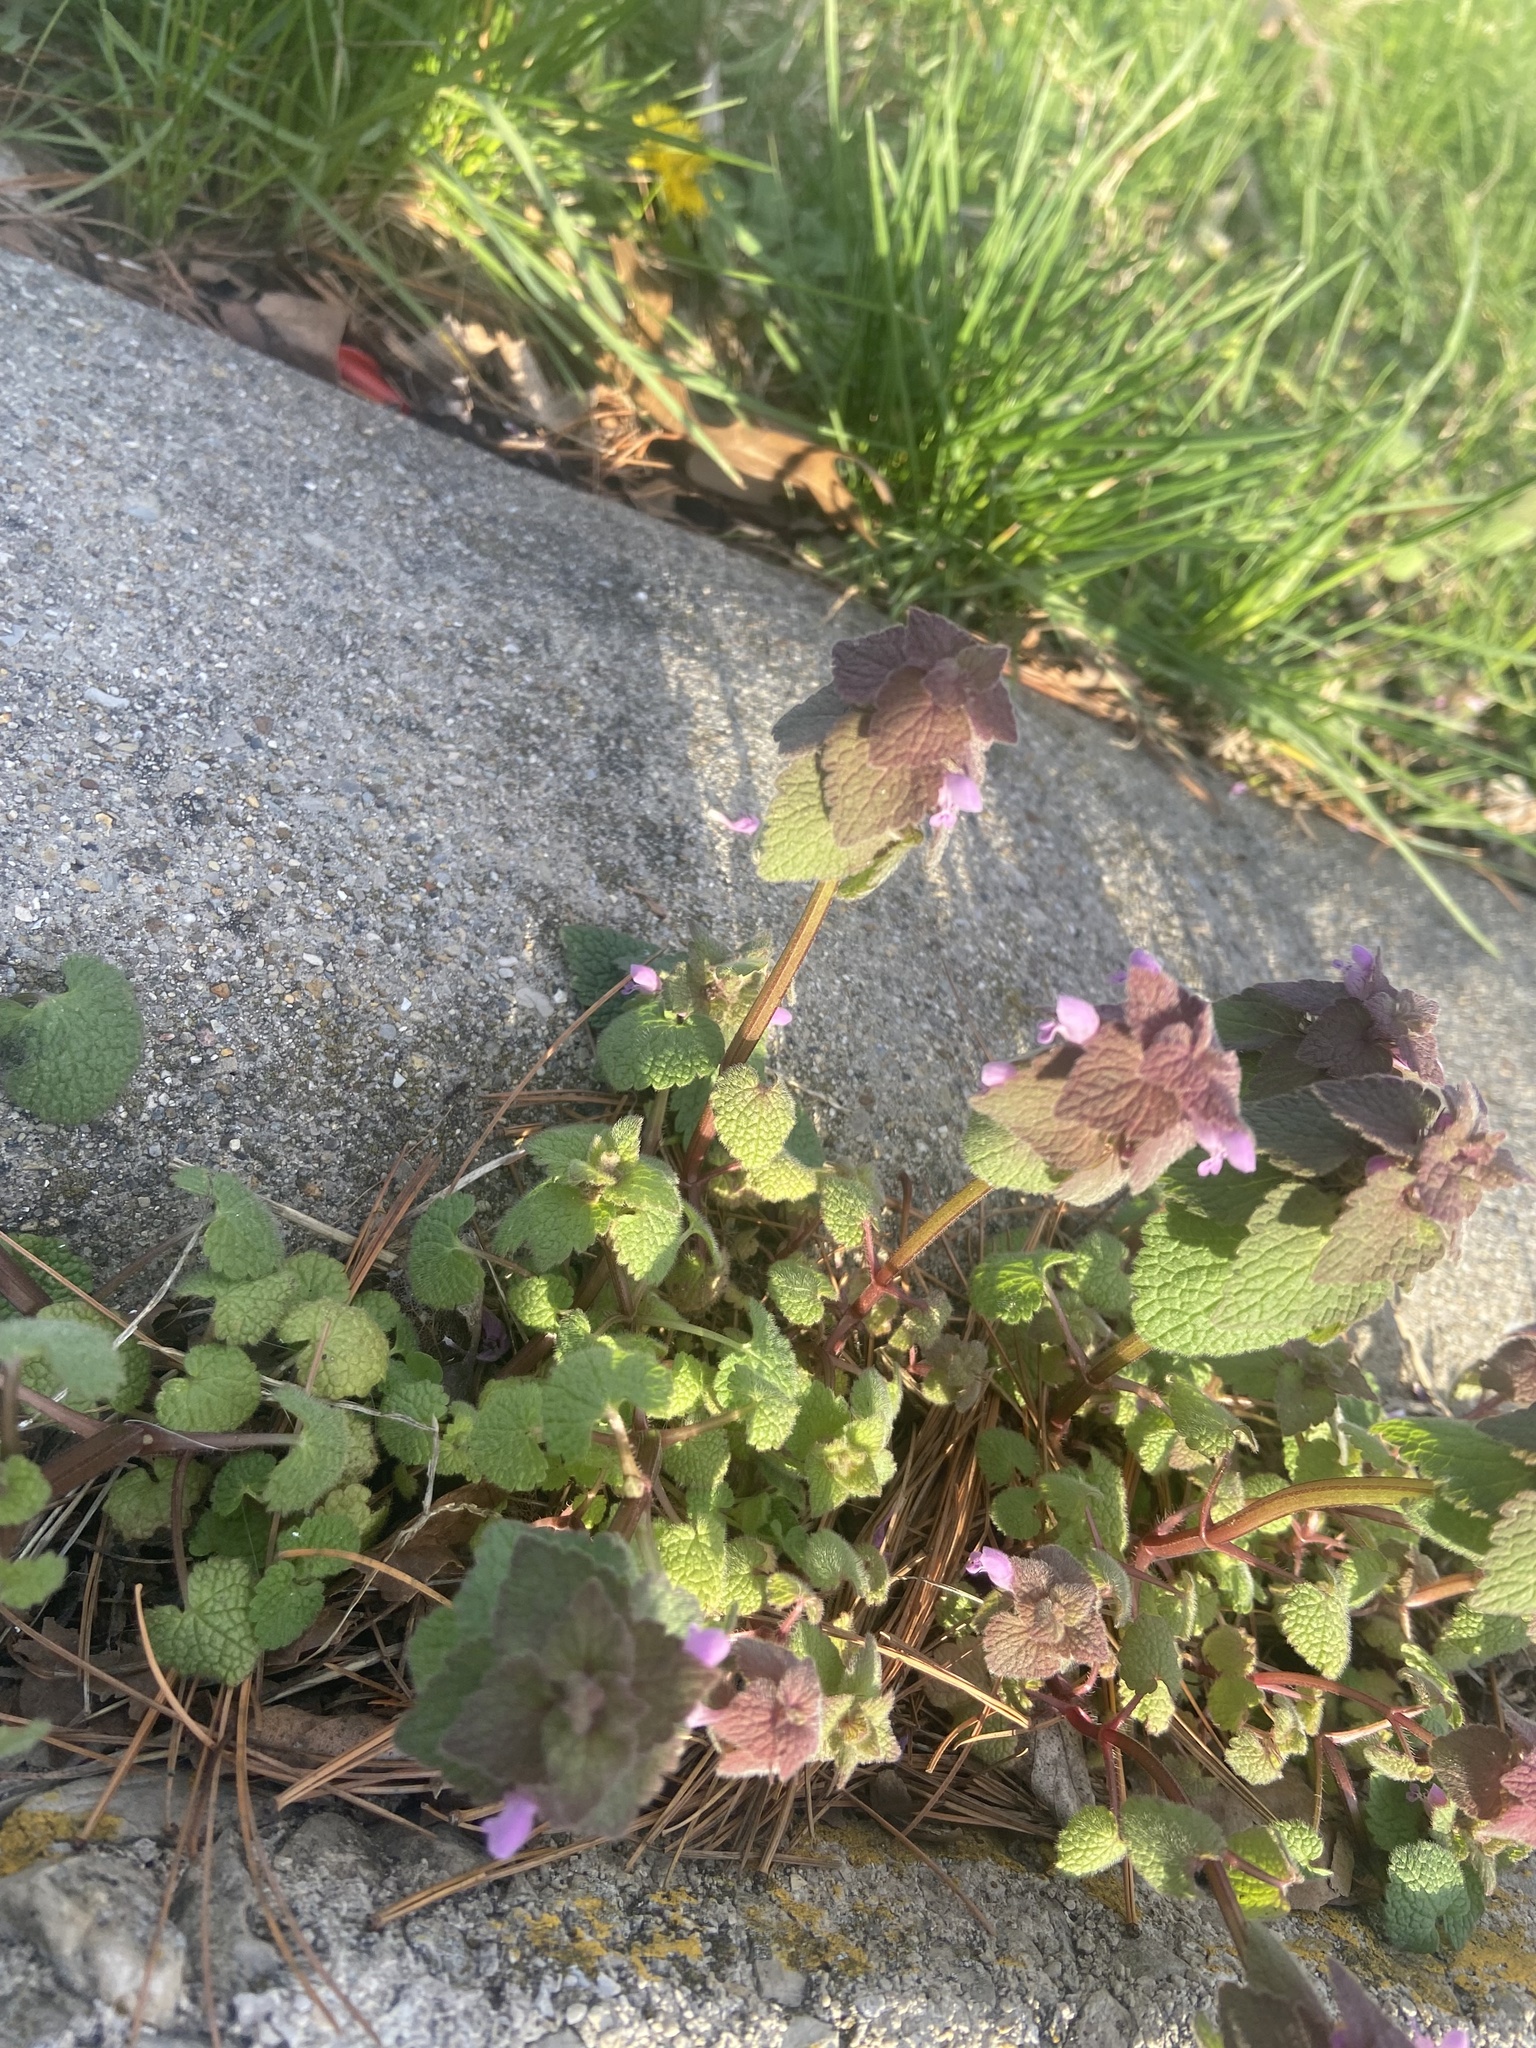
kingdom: Plantae
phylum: Tracheophyta
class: Magnoliopsida
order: Lamiales
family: Lamiaceae
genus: Lamium
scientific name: Lamium purpureum
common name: Red dead-nettle
